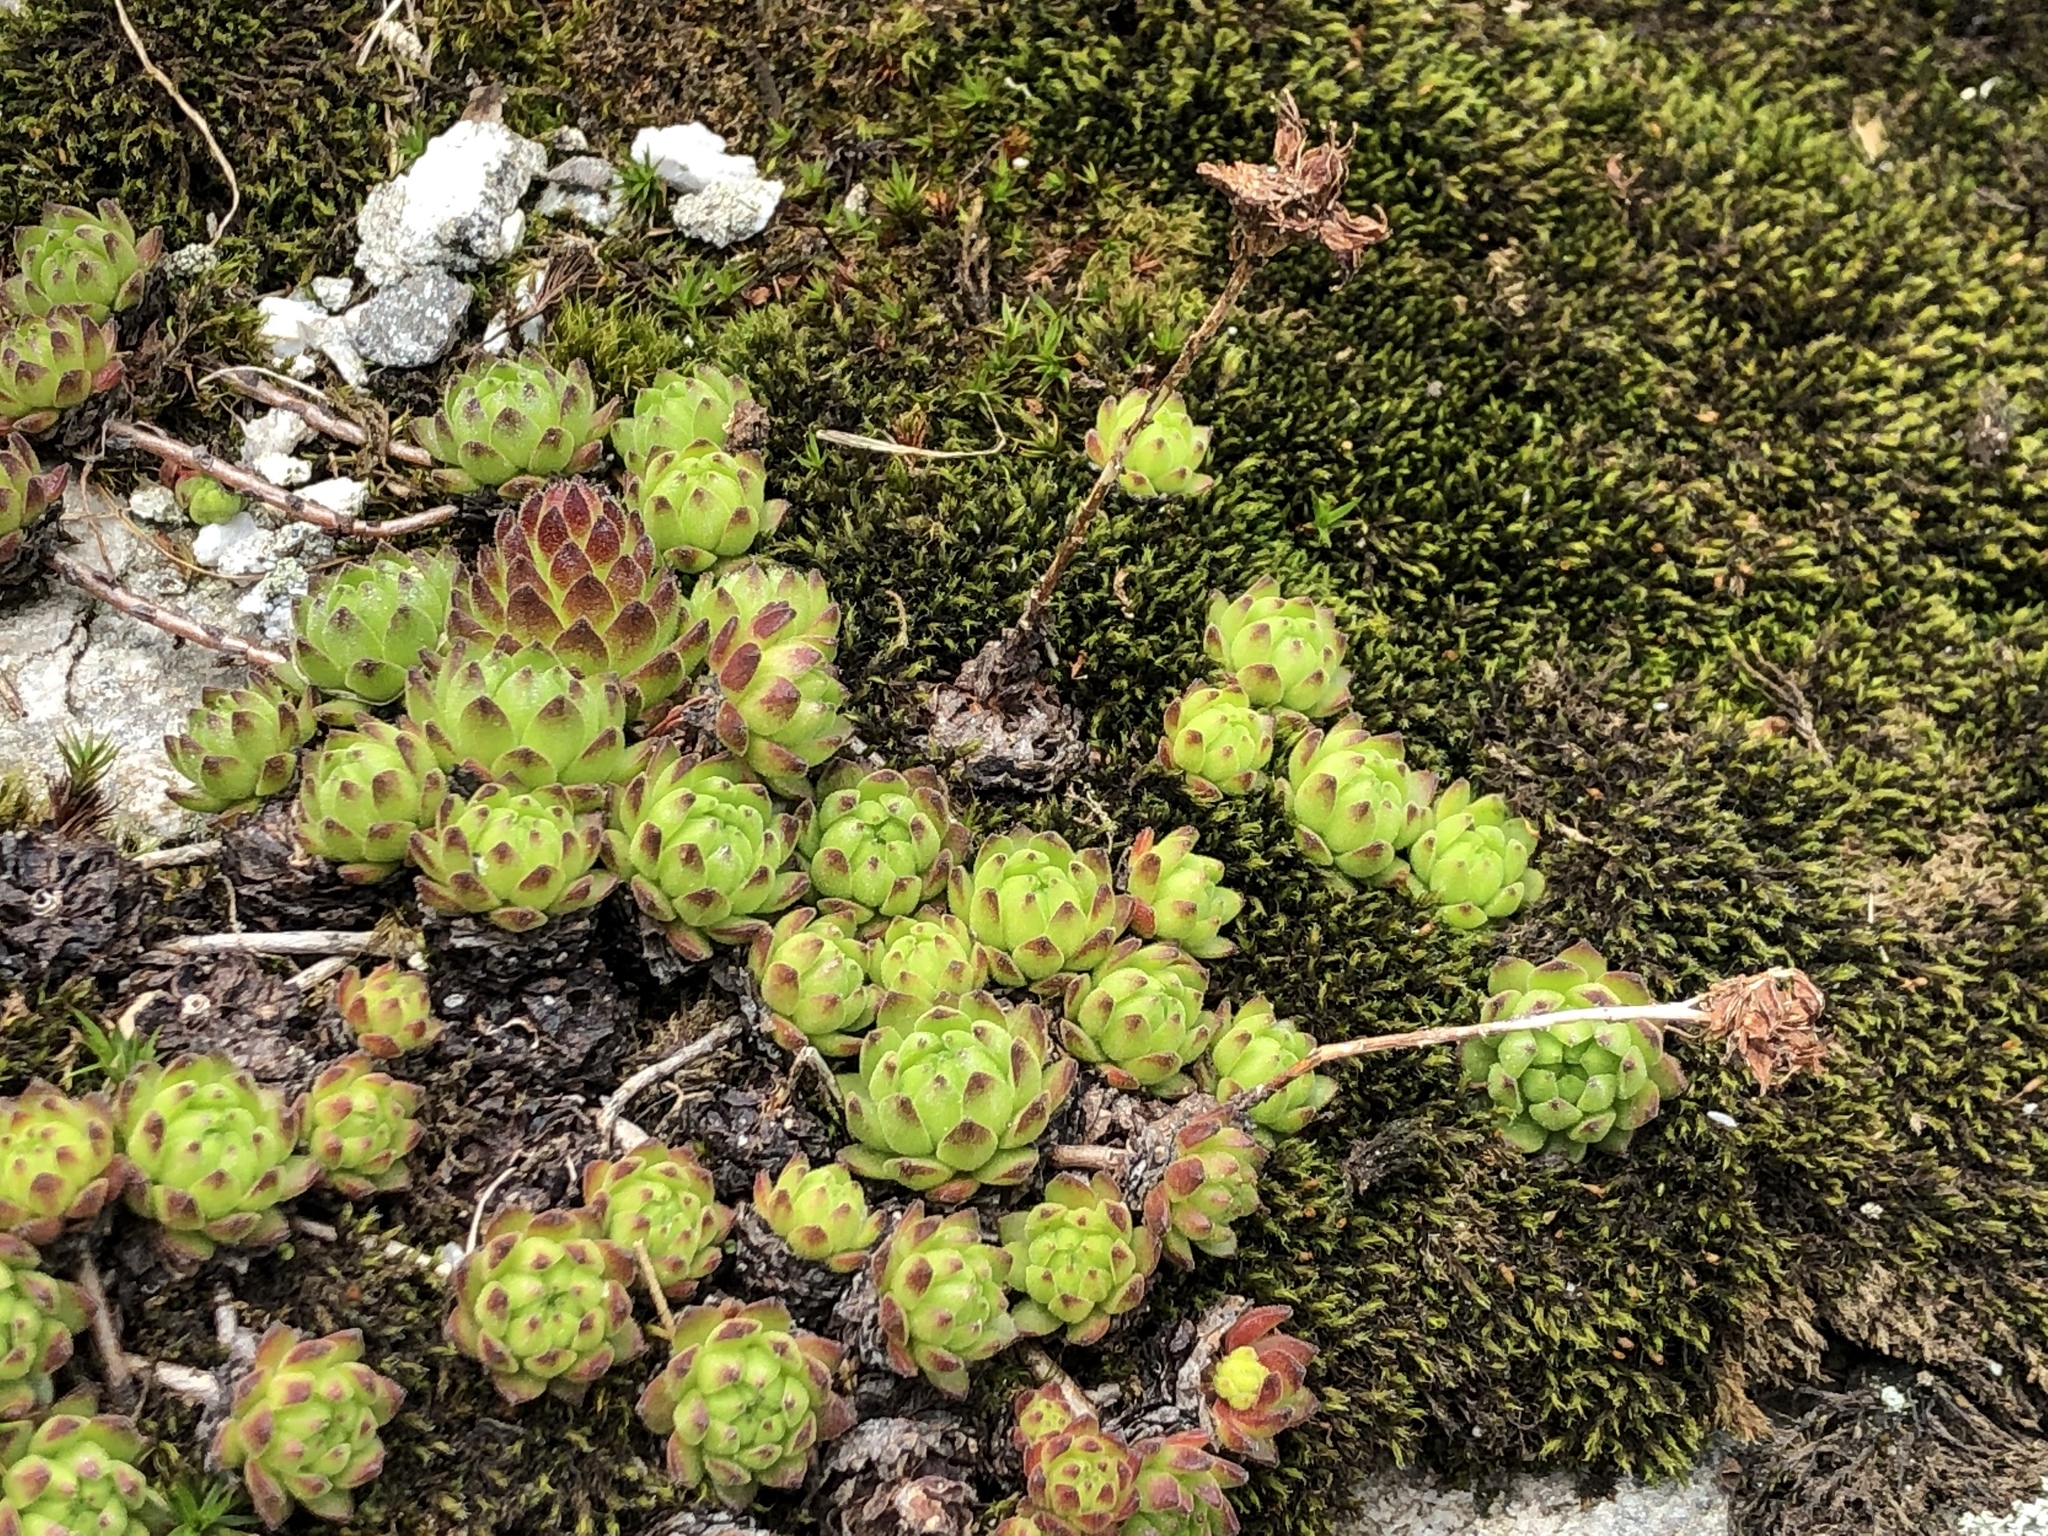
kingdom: Plantae
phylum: Tracheophyta
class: Magnoliopsida
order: Saxifragales
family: Crassulaceae
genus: Sempervivum
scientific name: Sempervivum montanum
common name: Mountain house-leek
